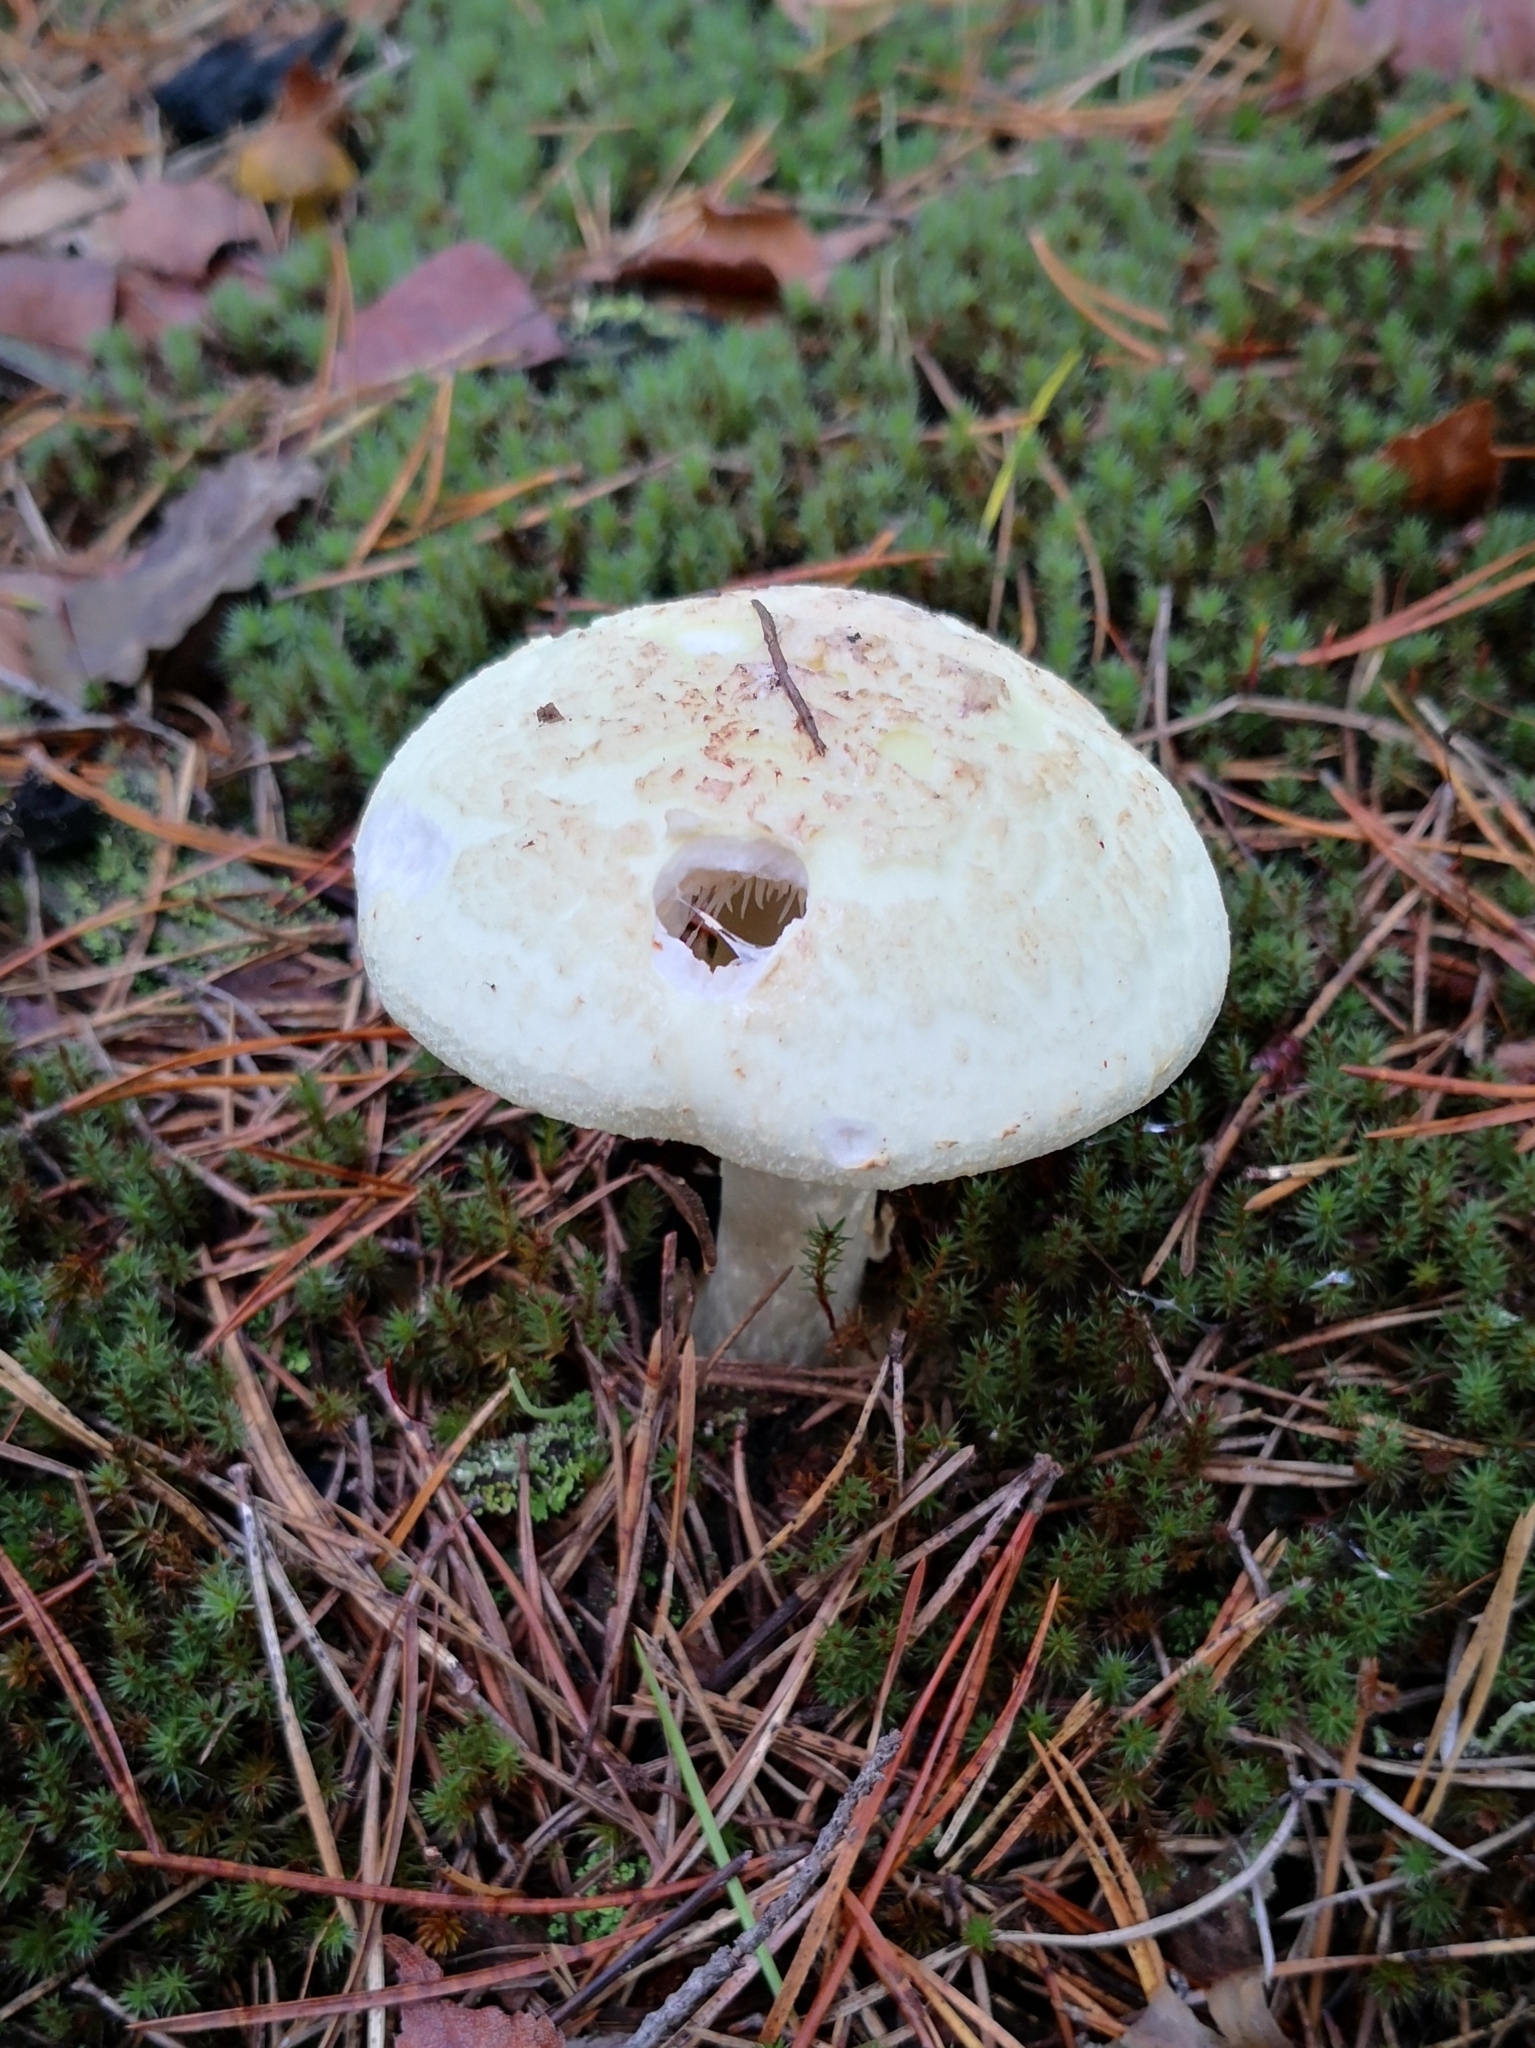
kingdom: Fungi
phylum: Basidiomycota
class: Agaricomycetes
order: Agaricales
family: Amanitaceae
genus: Amanita
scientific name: Amanita citrina
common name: False death-cap
